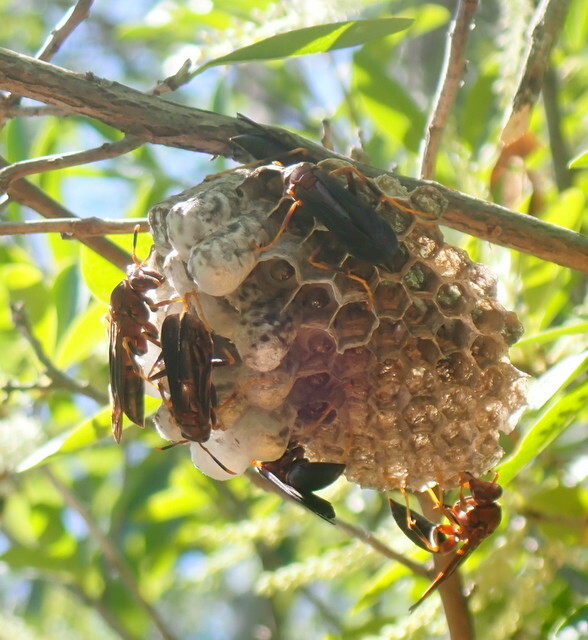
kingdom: Animalia
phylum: Arthropoda
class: Insecta
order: Hymenoptera
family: Eumenidae
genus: Polistes
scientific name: Polistes annularis
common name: Ringed paper wasp
